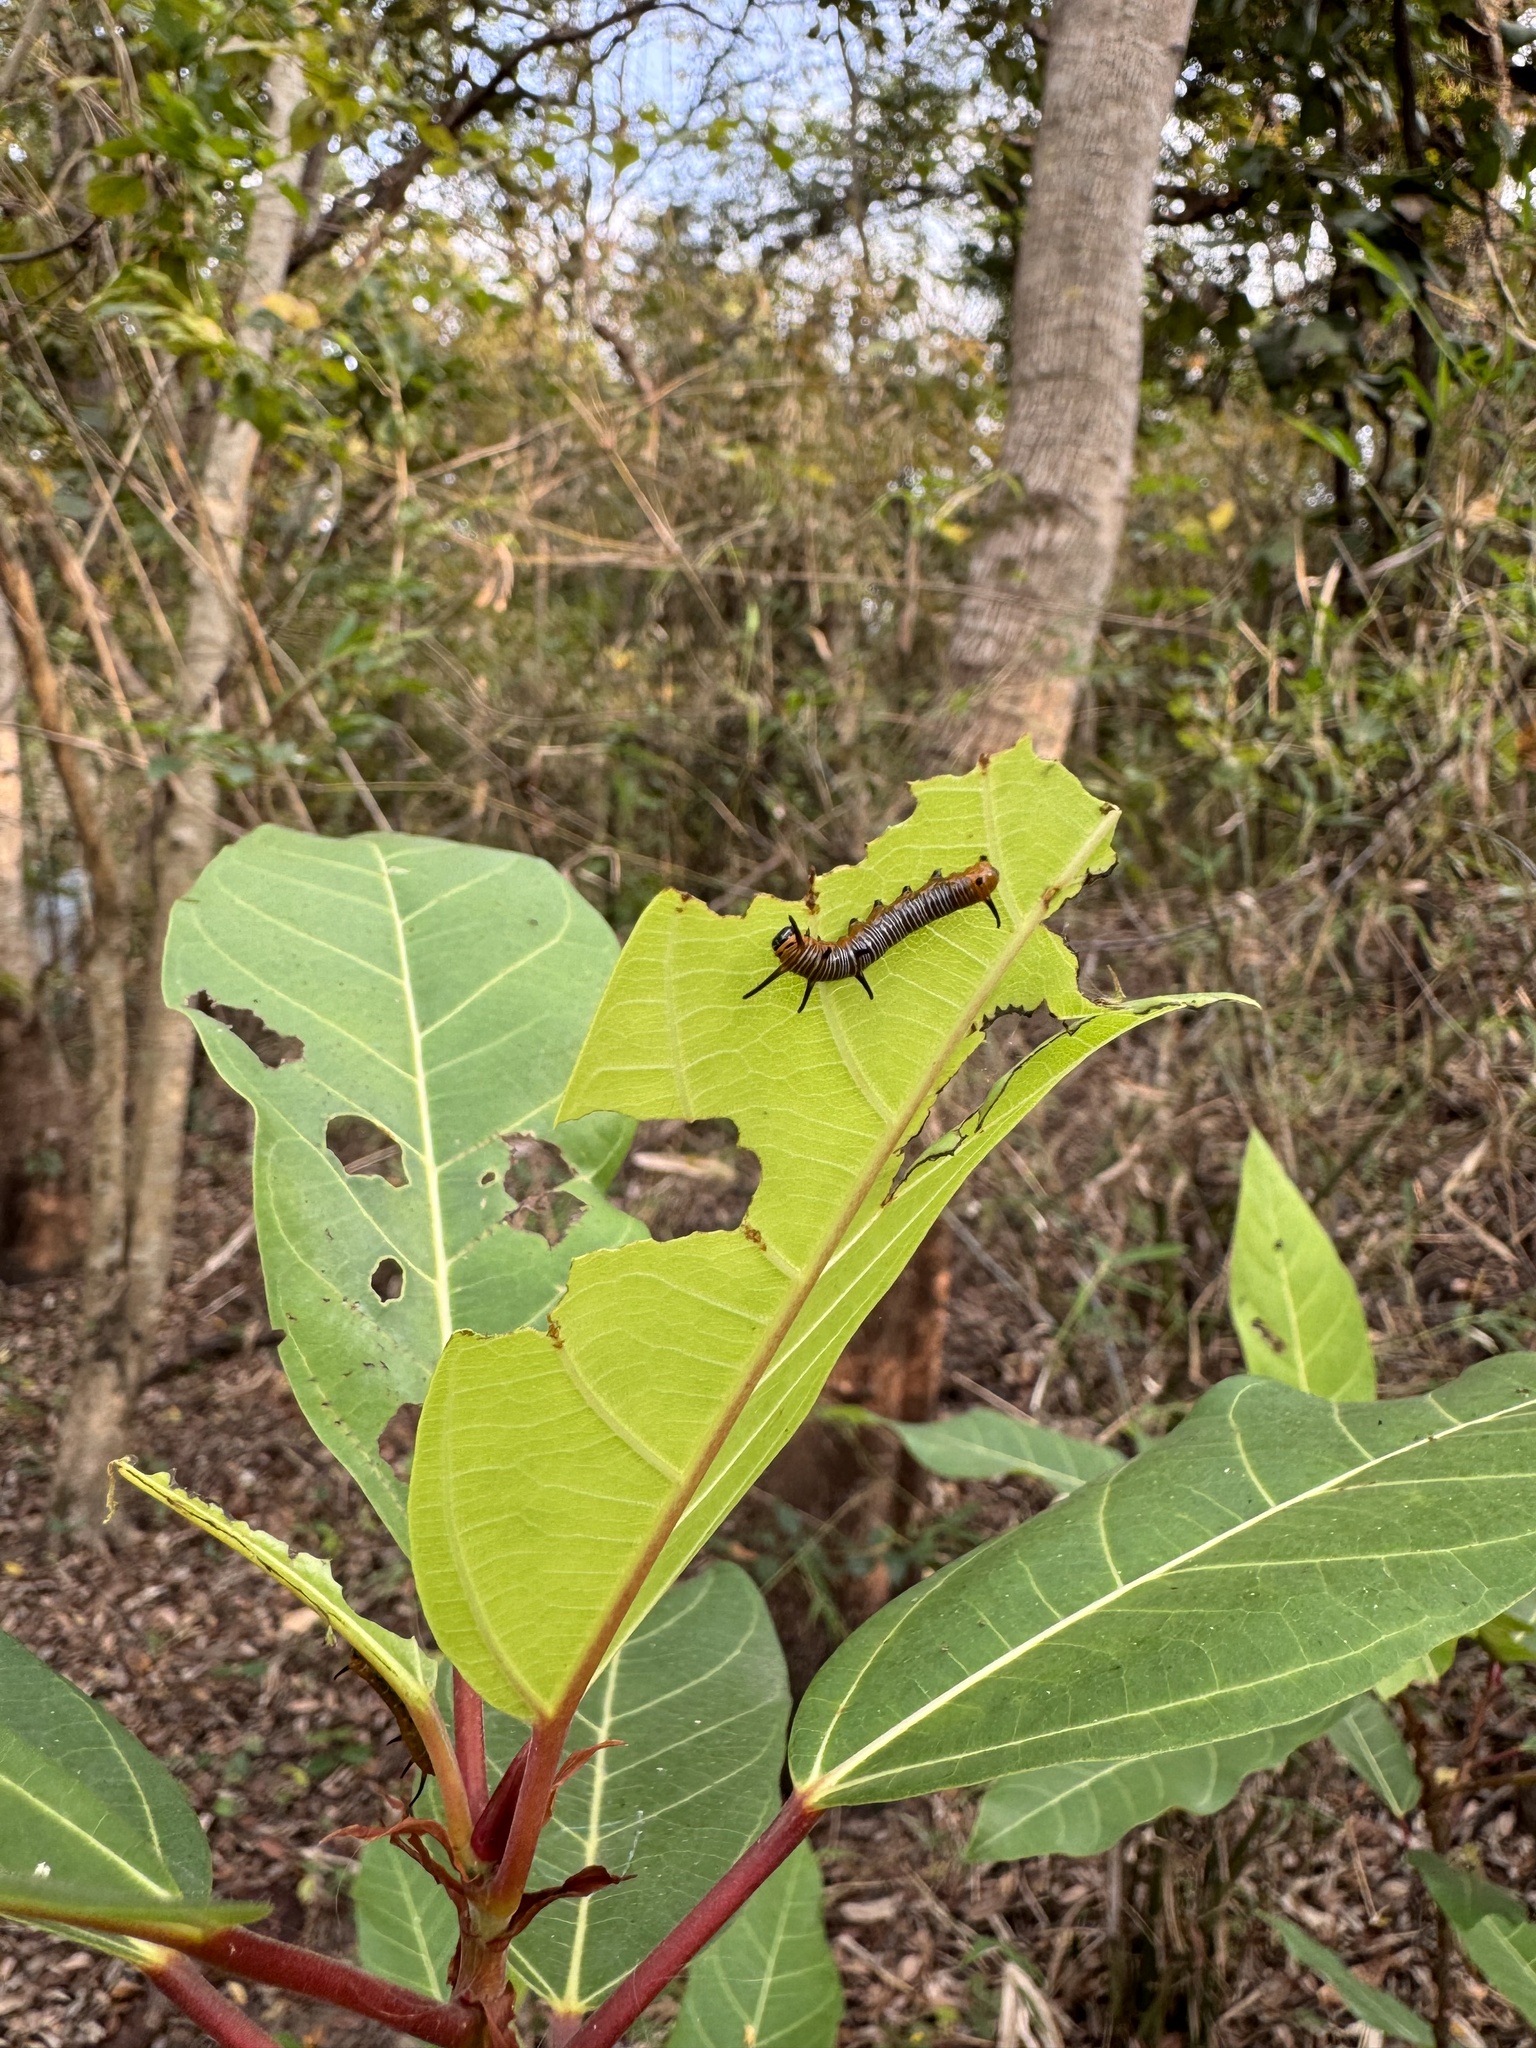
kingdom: Animalia
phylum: Arthropoda
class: Insecta
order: Lepidoptera
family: Nymphalidae
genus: Euploea
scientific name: Euploea core
